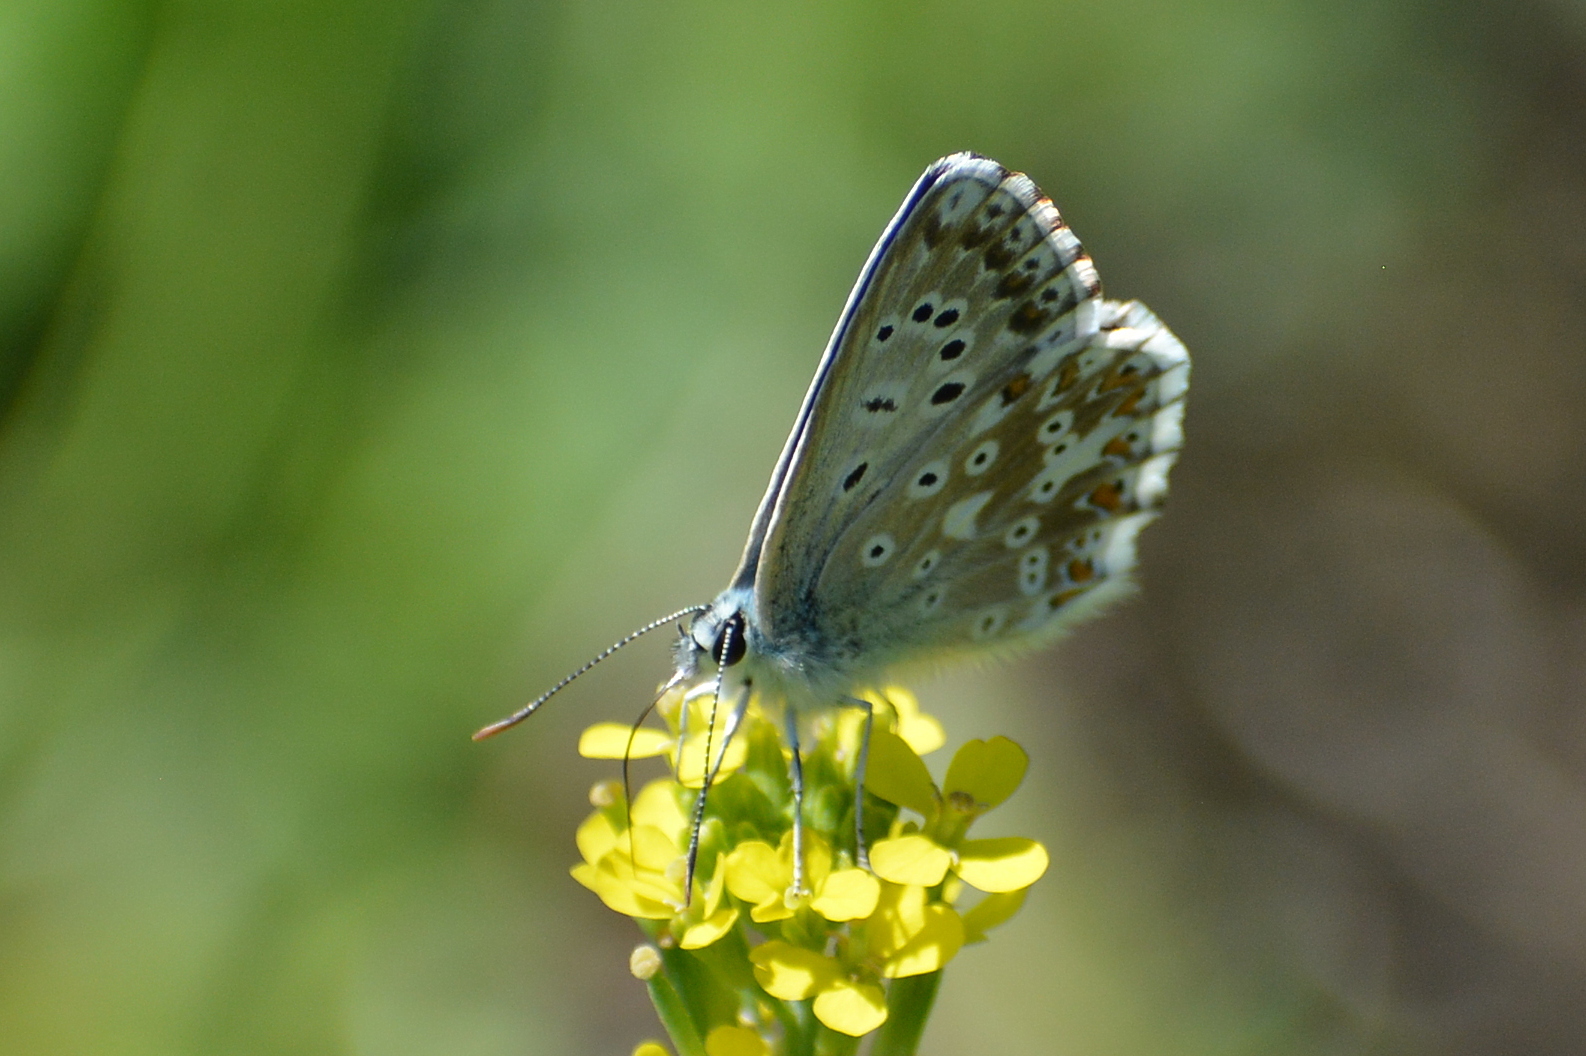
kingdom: Animalia
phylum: Arthropoda
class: Insecta
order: Lepidoptera
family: Lycaenidae
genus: Lysandra
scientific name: Lysandra coridon
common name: Chalkhill blue
